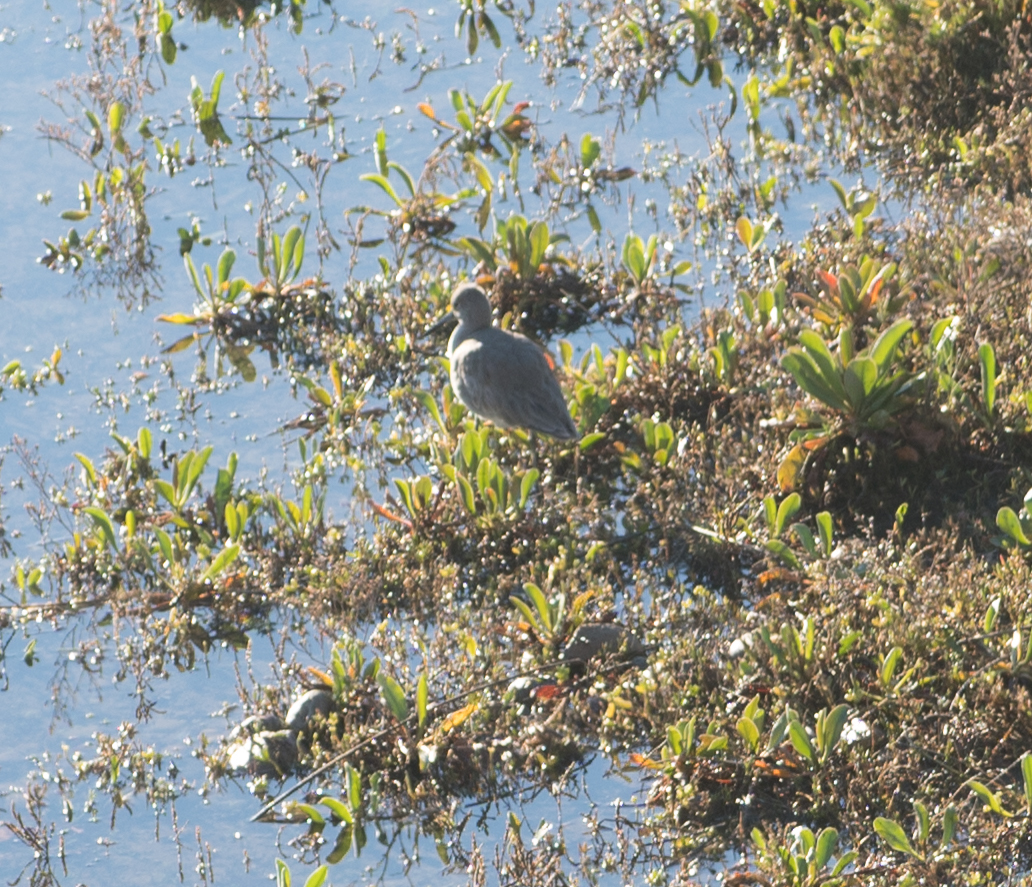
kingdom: Animalia
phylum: Chordata
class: Aves
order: Charadriiformes
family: Scolopacidae
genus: Tringa
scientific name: Tringa semipalmata
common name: Willet
